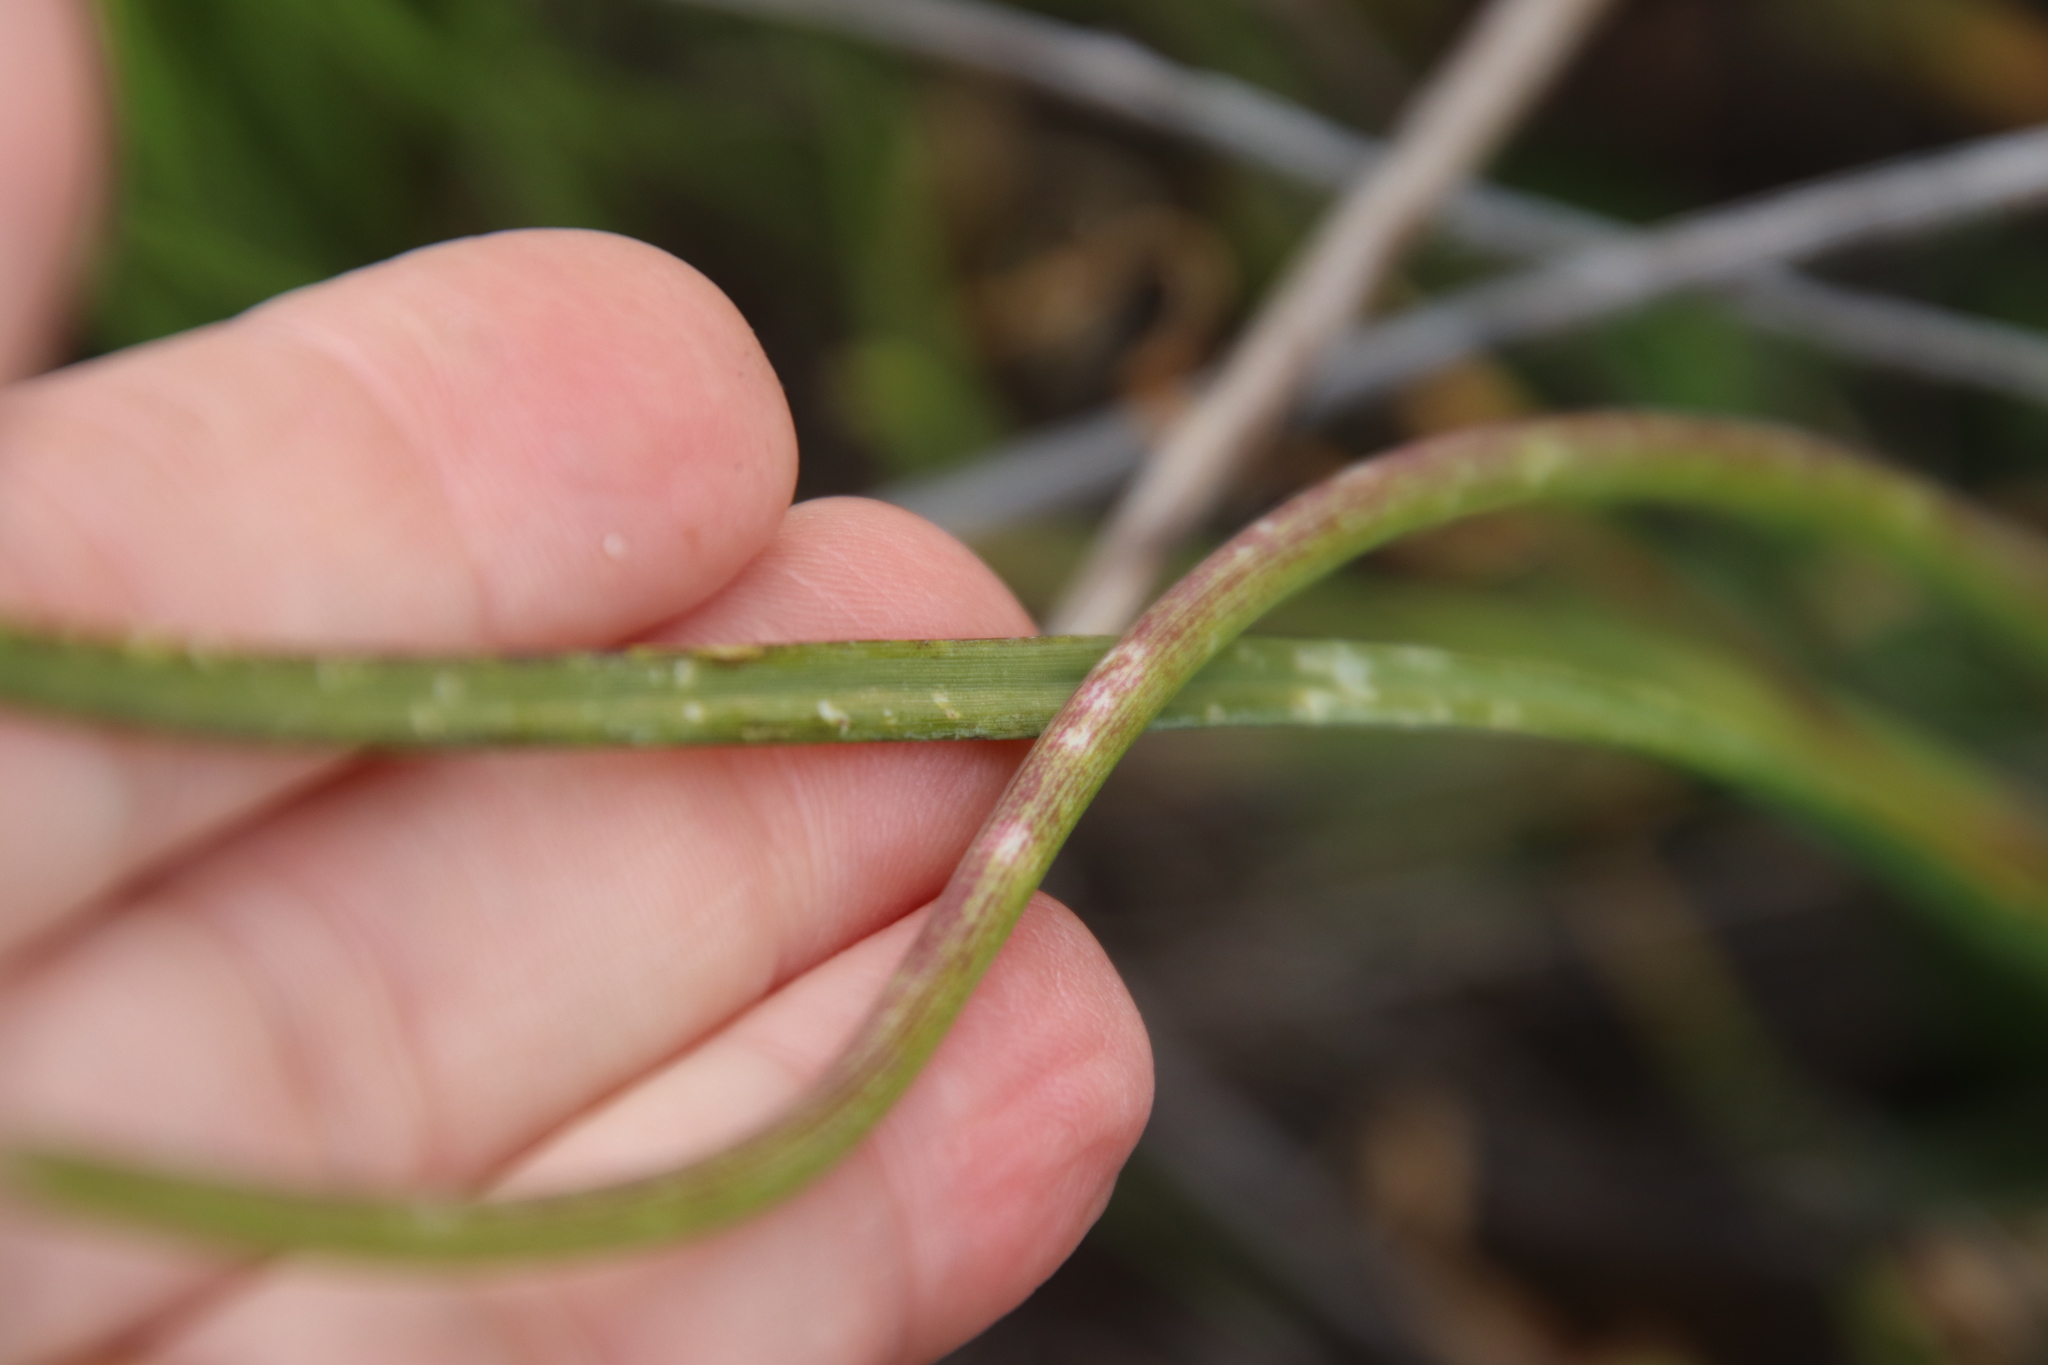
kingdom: Plantae
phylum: Tracheophyta
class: Liliopsida
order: Asparagales
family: Amaryllidaceae
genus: Allium
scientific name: Allium praecox
